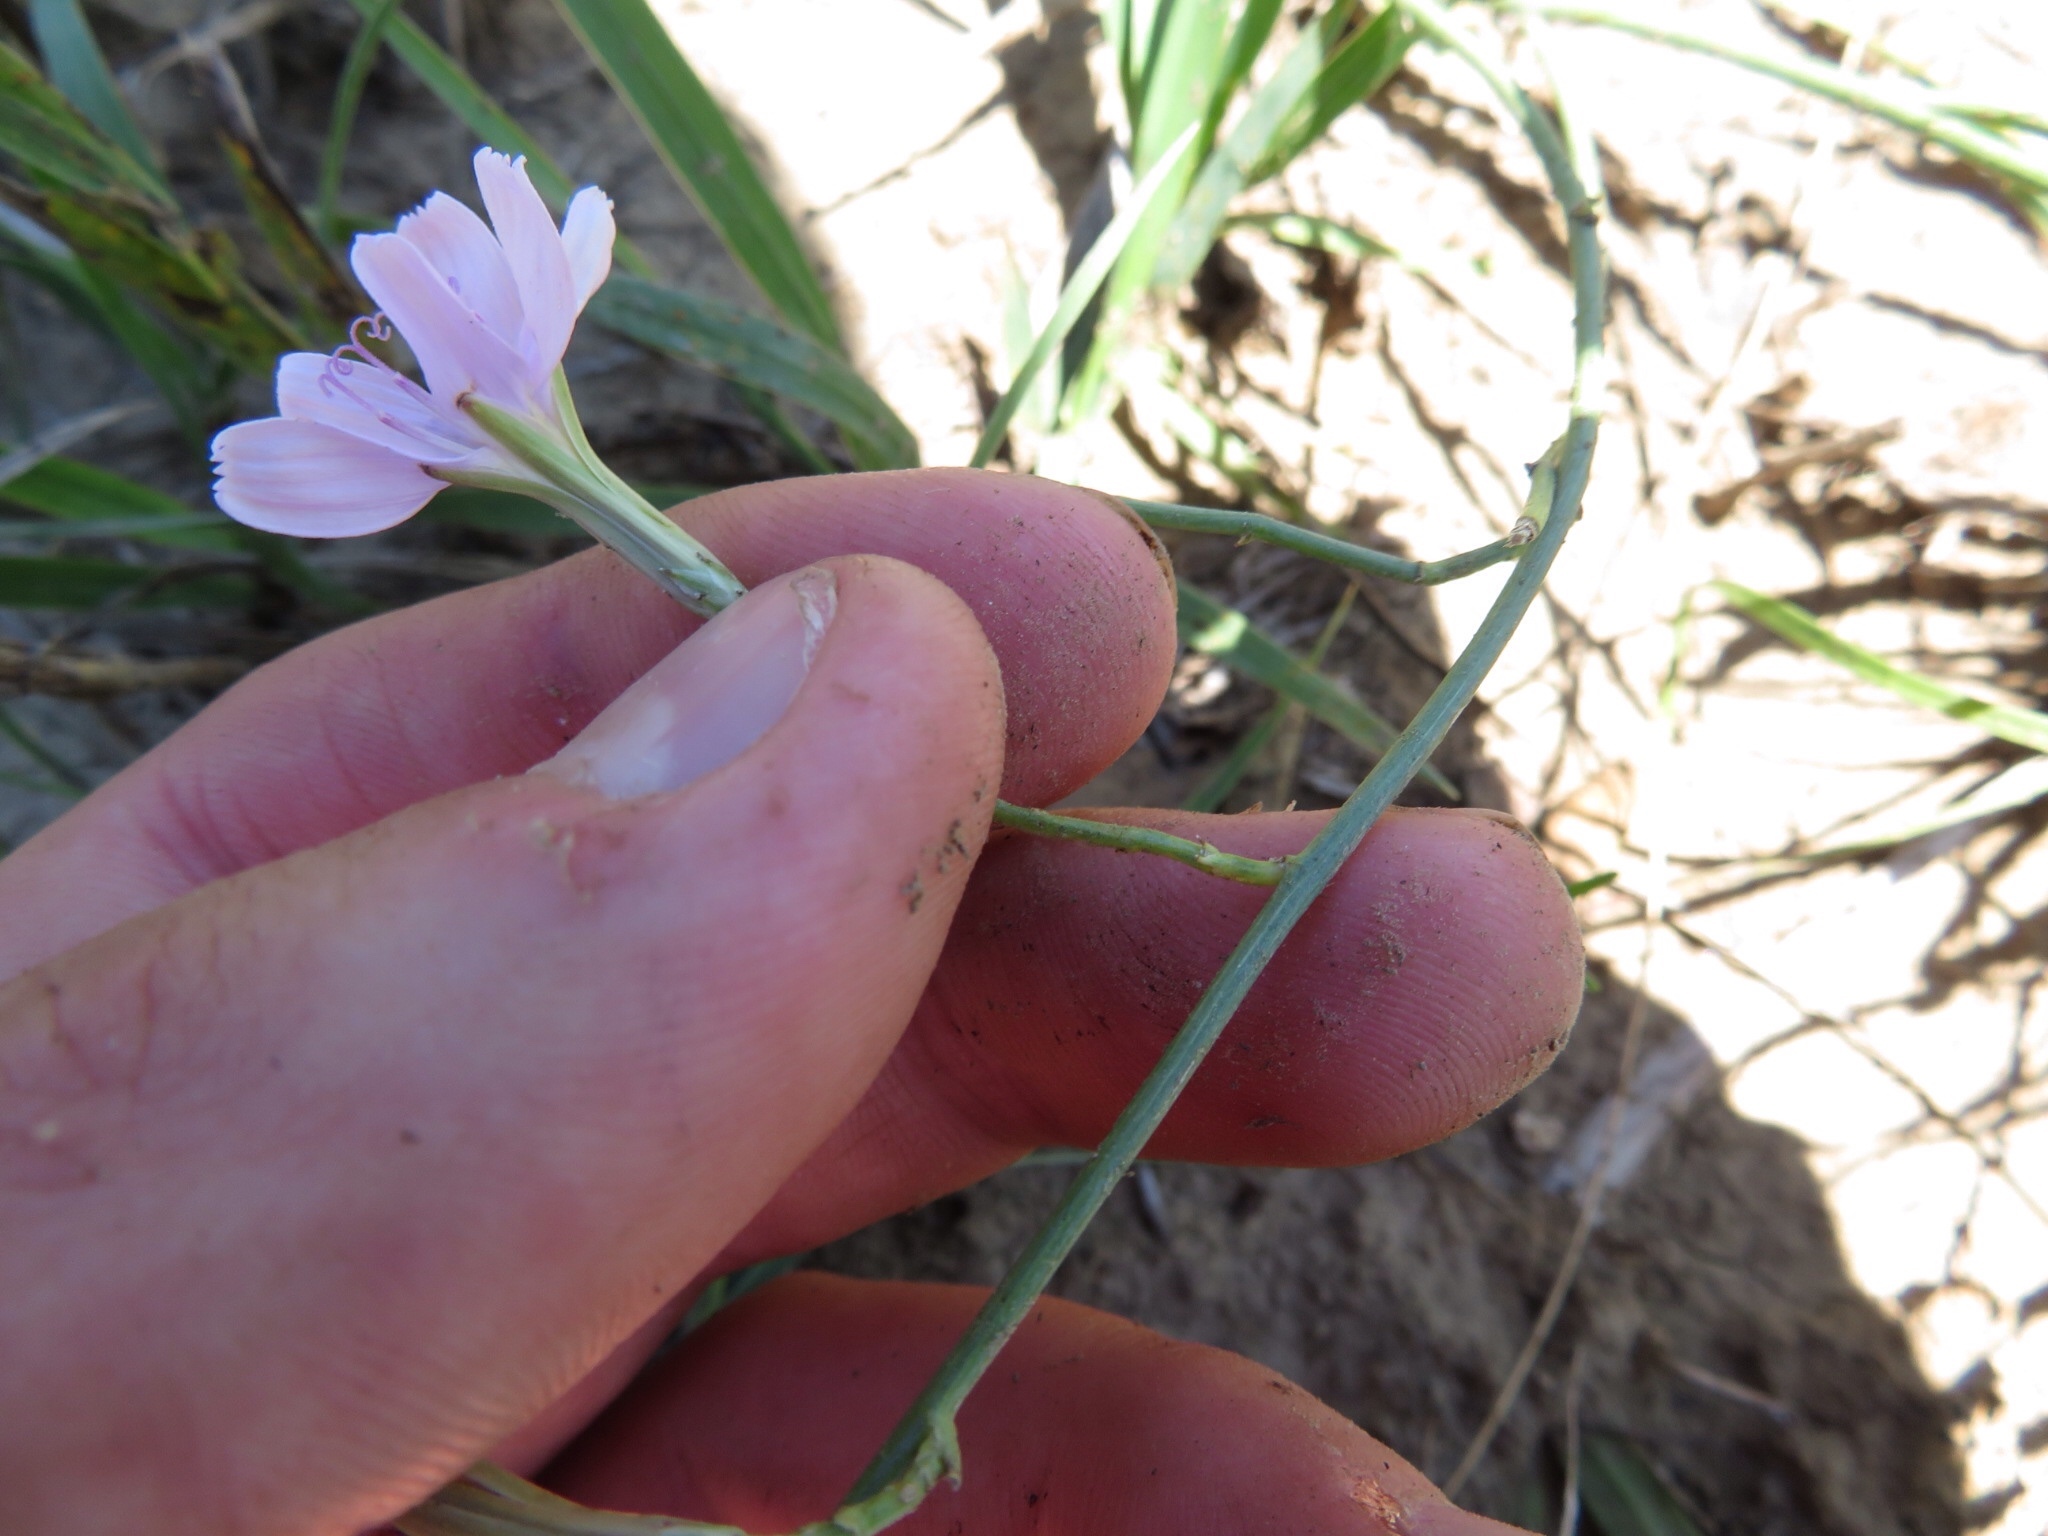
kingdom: Plantae
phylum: Tracheophyta
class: Magnoliopsida
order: Asterales
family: Asteraceae
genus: Lygodesmia
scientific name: Lygodesmia juncea
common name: Common skeletonweed
